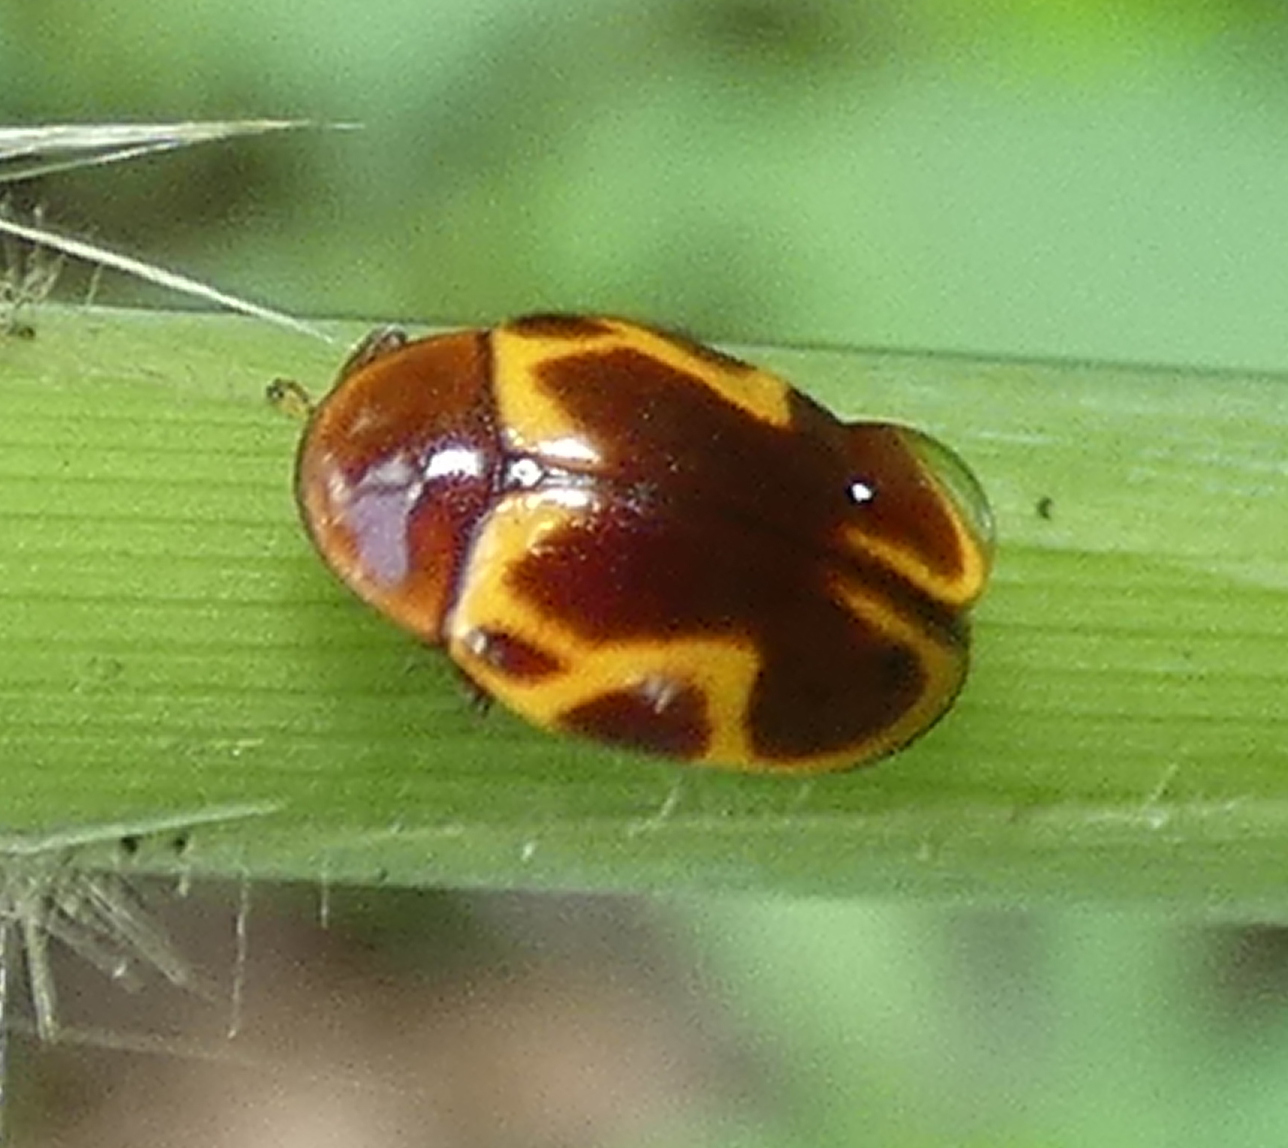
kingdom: Animalia
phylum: Arthropoda
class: Insecta
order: Coleoptera
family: Chelonariidae
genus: Chelonarium
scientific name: Chelonarium
